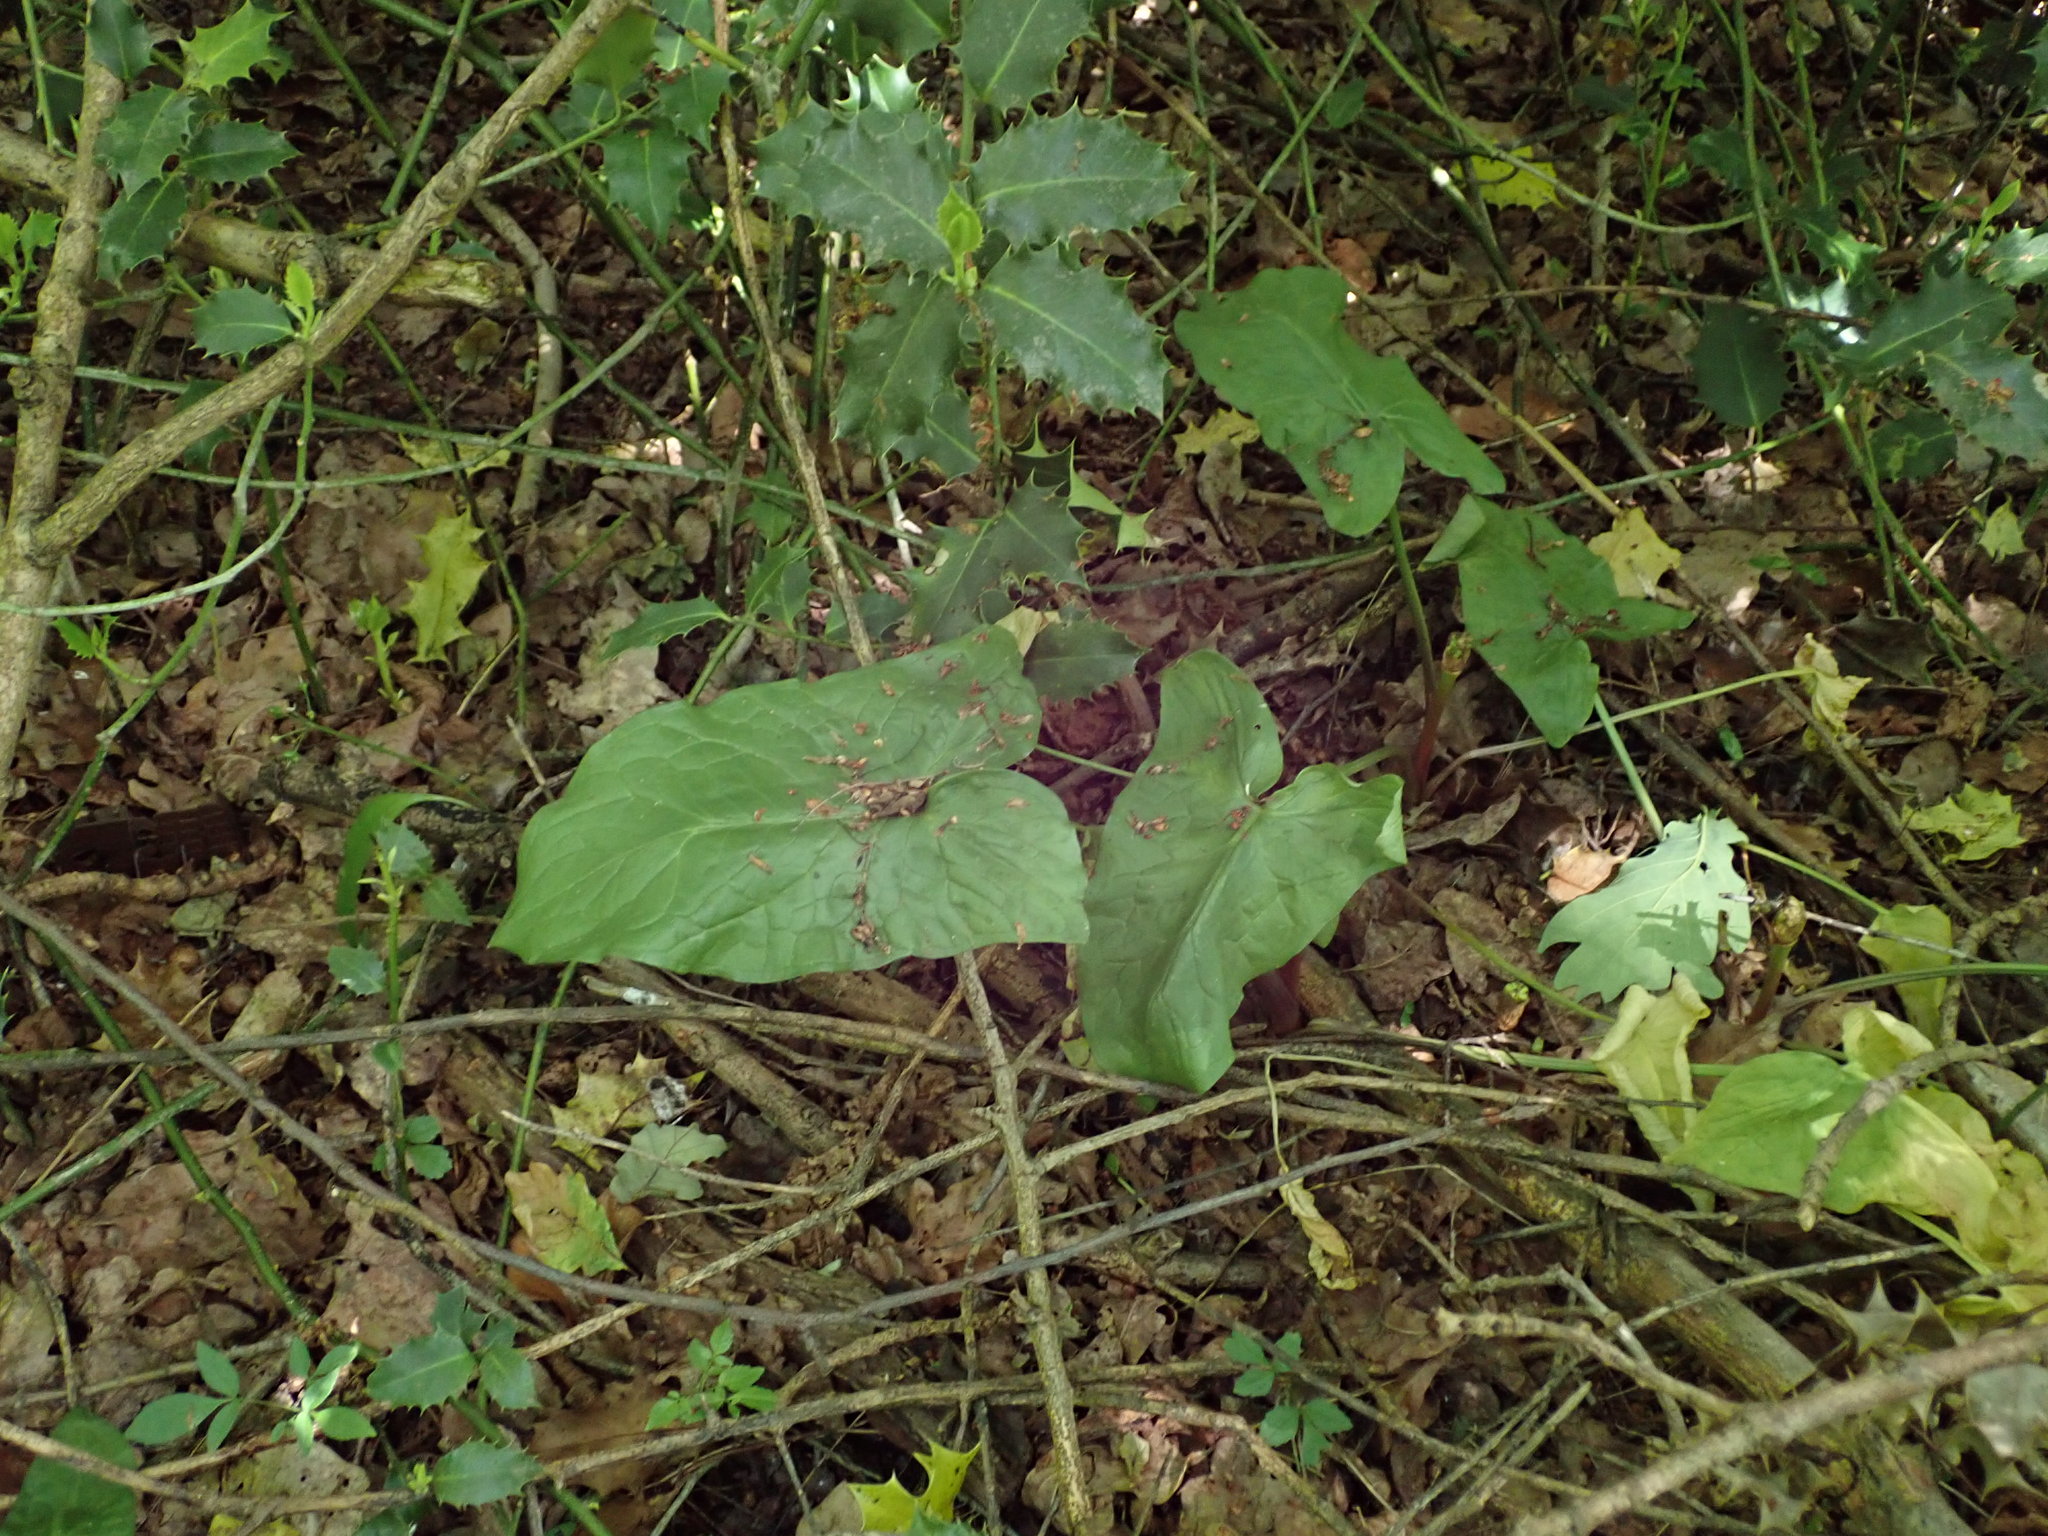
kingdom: Plantae
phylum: Tracheophyta
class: Liliopsida
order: Alismatales
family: Araceae
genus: Arum
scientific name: Arum maculatum
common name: Lords-and-ladies
